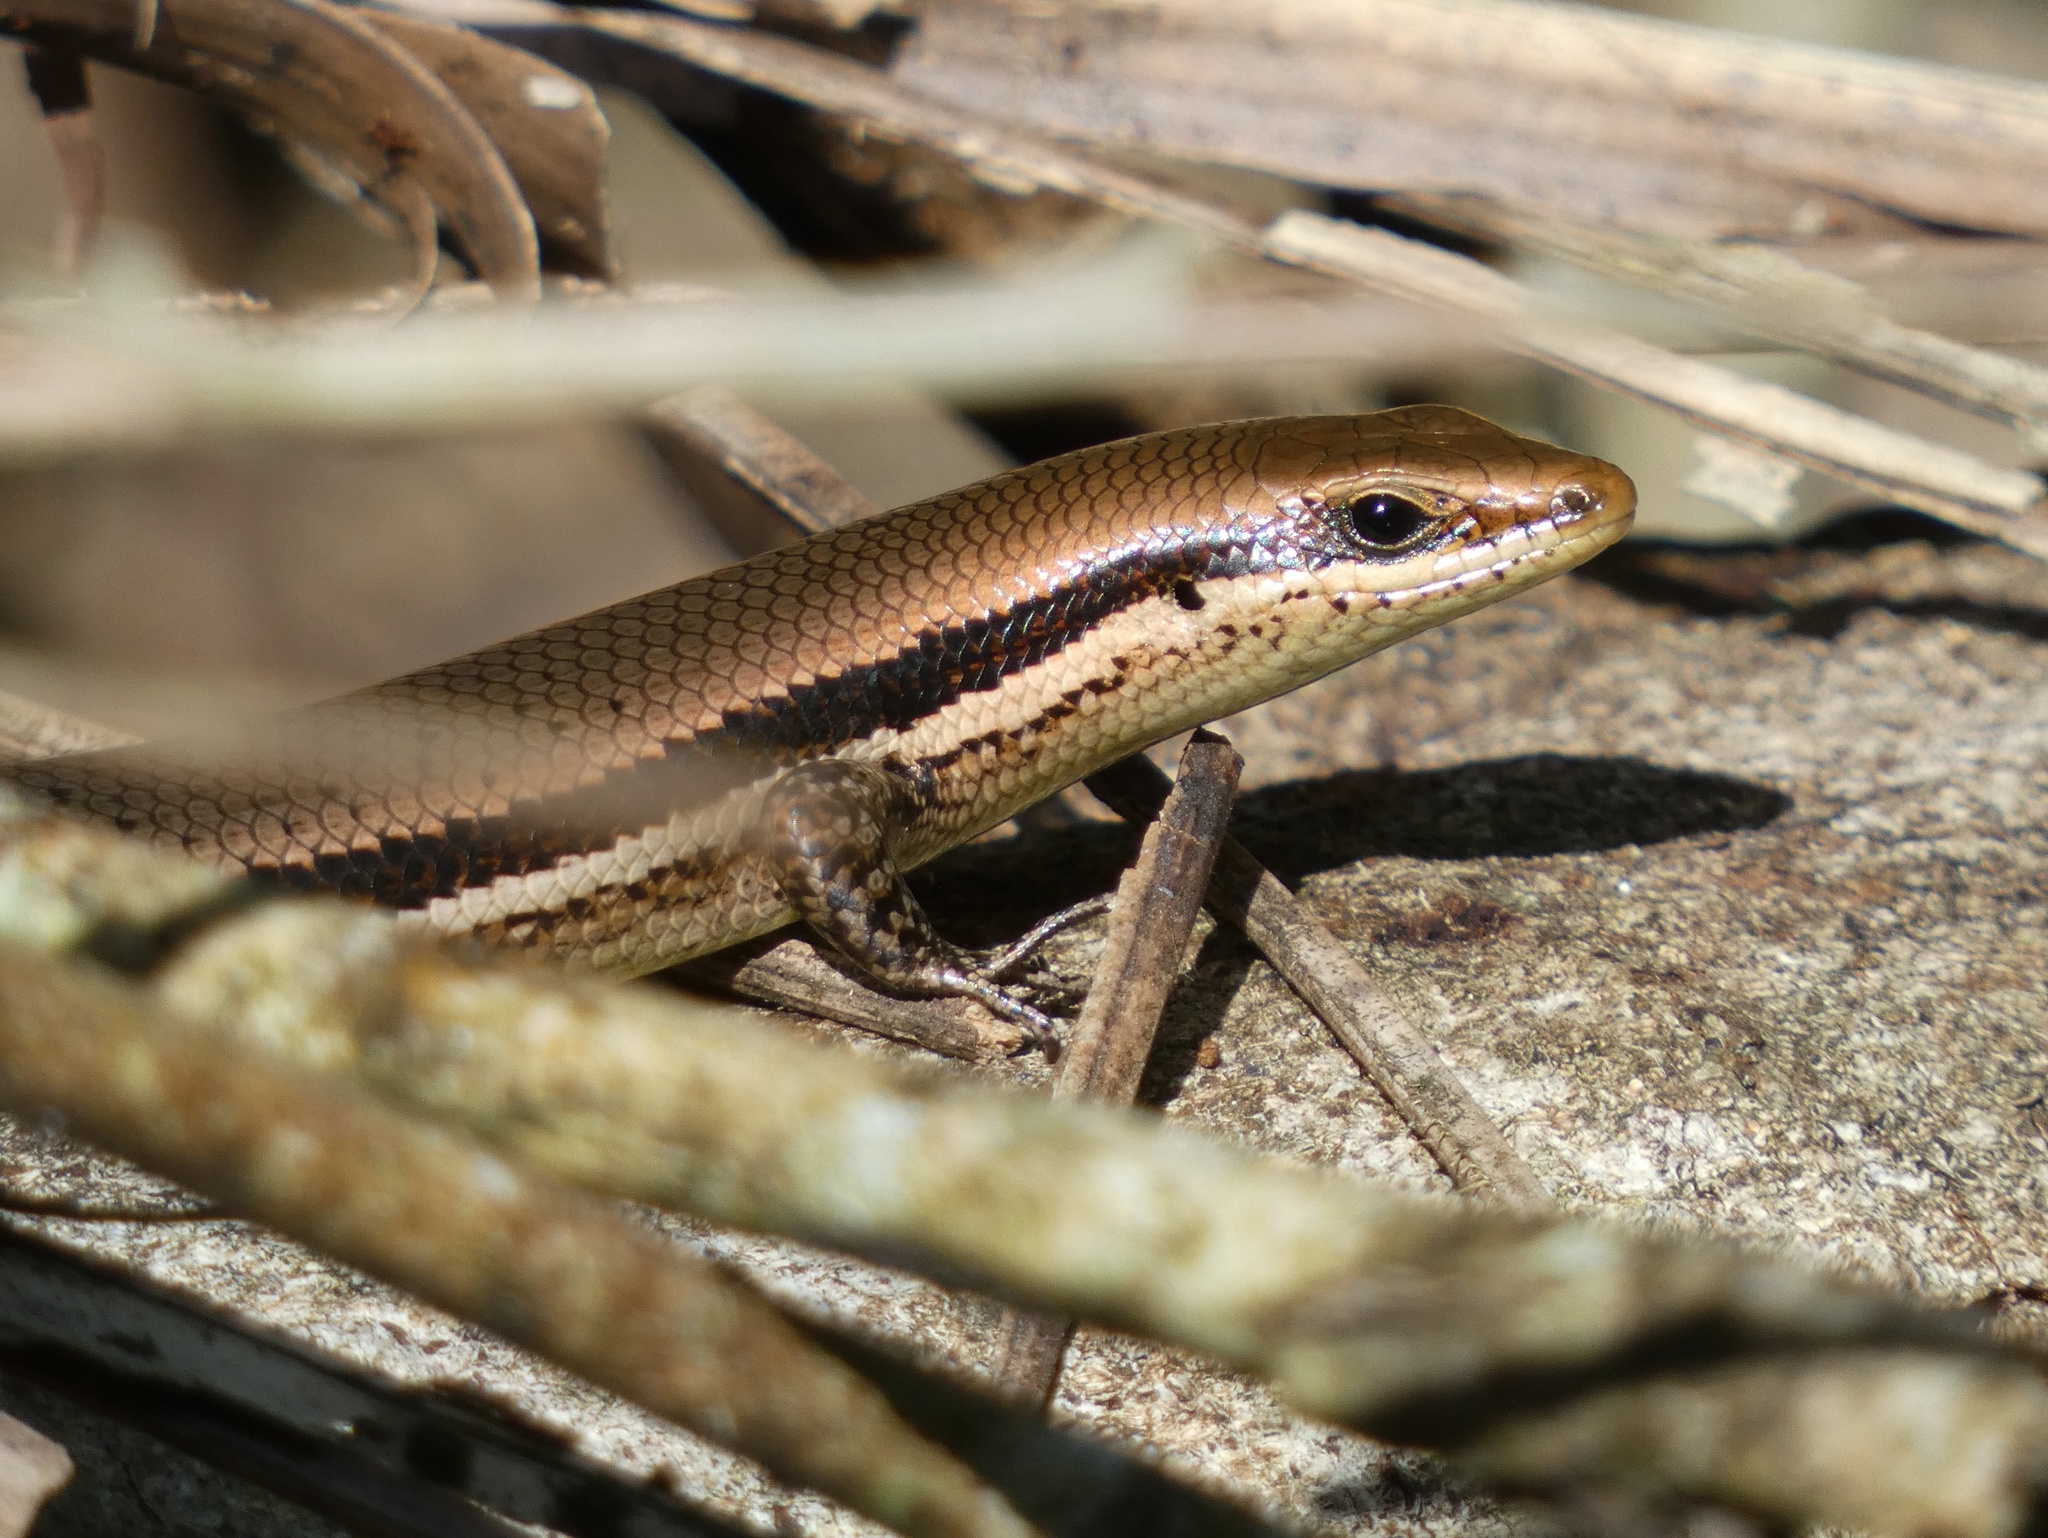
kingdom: Animalia
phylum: Chordata
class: Squamata
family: Scincidae
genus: Marisora
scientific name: Marisora unimarginata
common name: Central american mabuya
